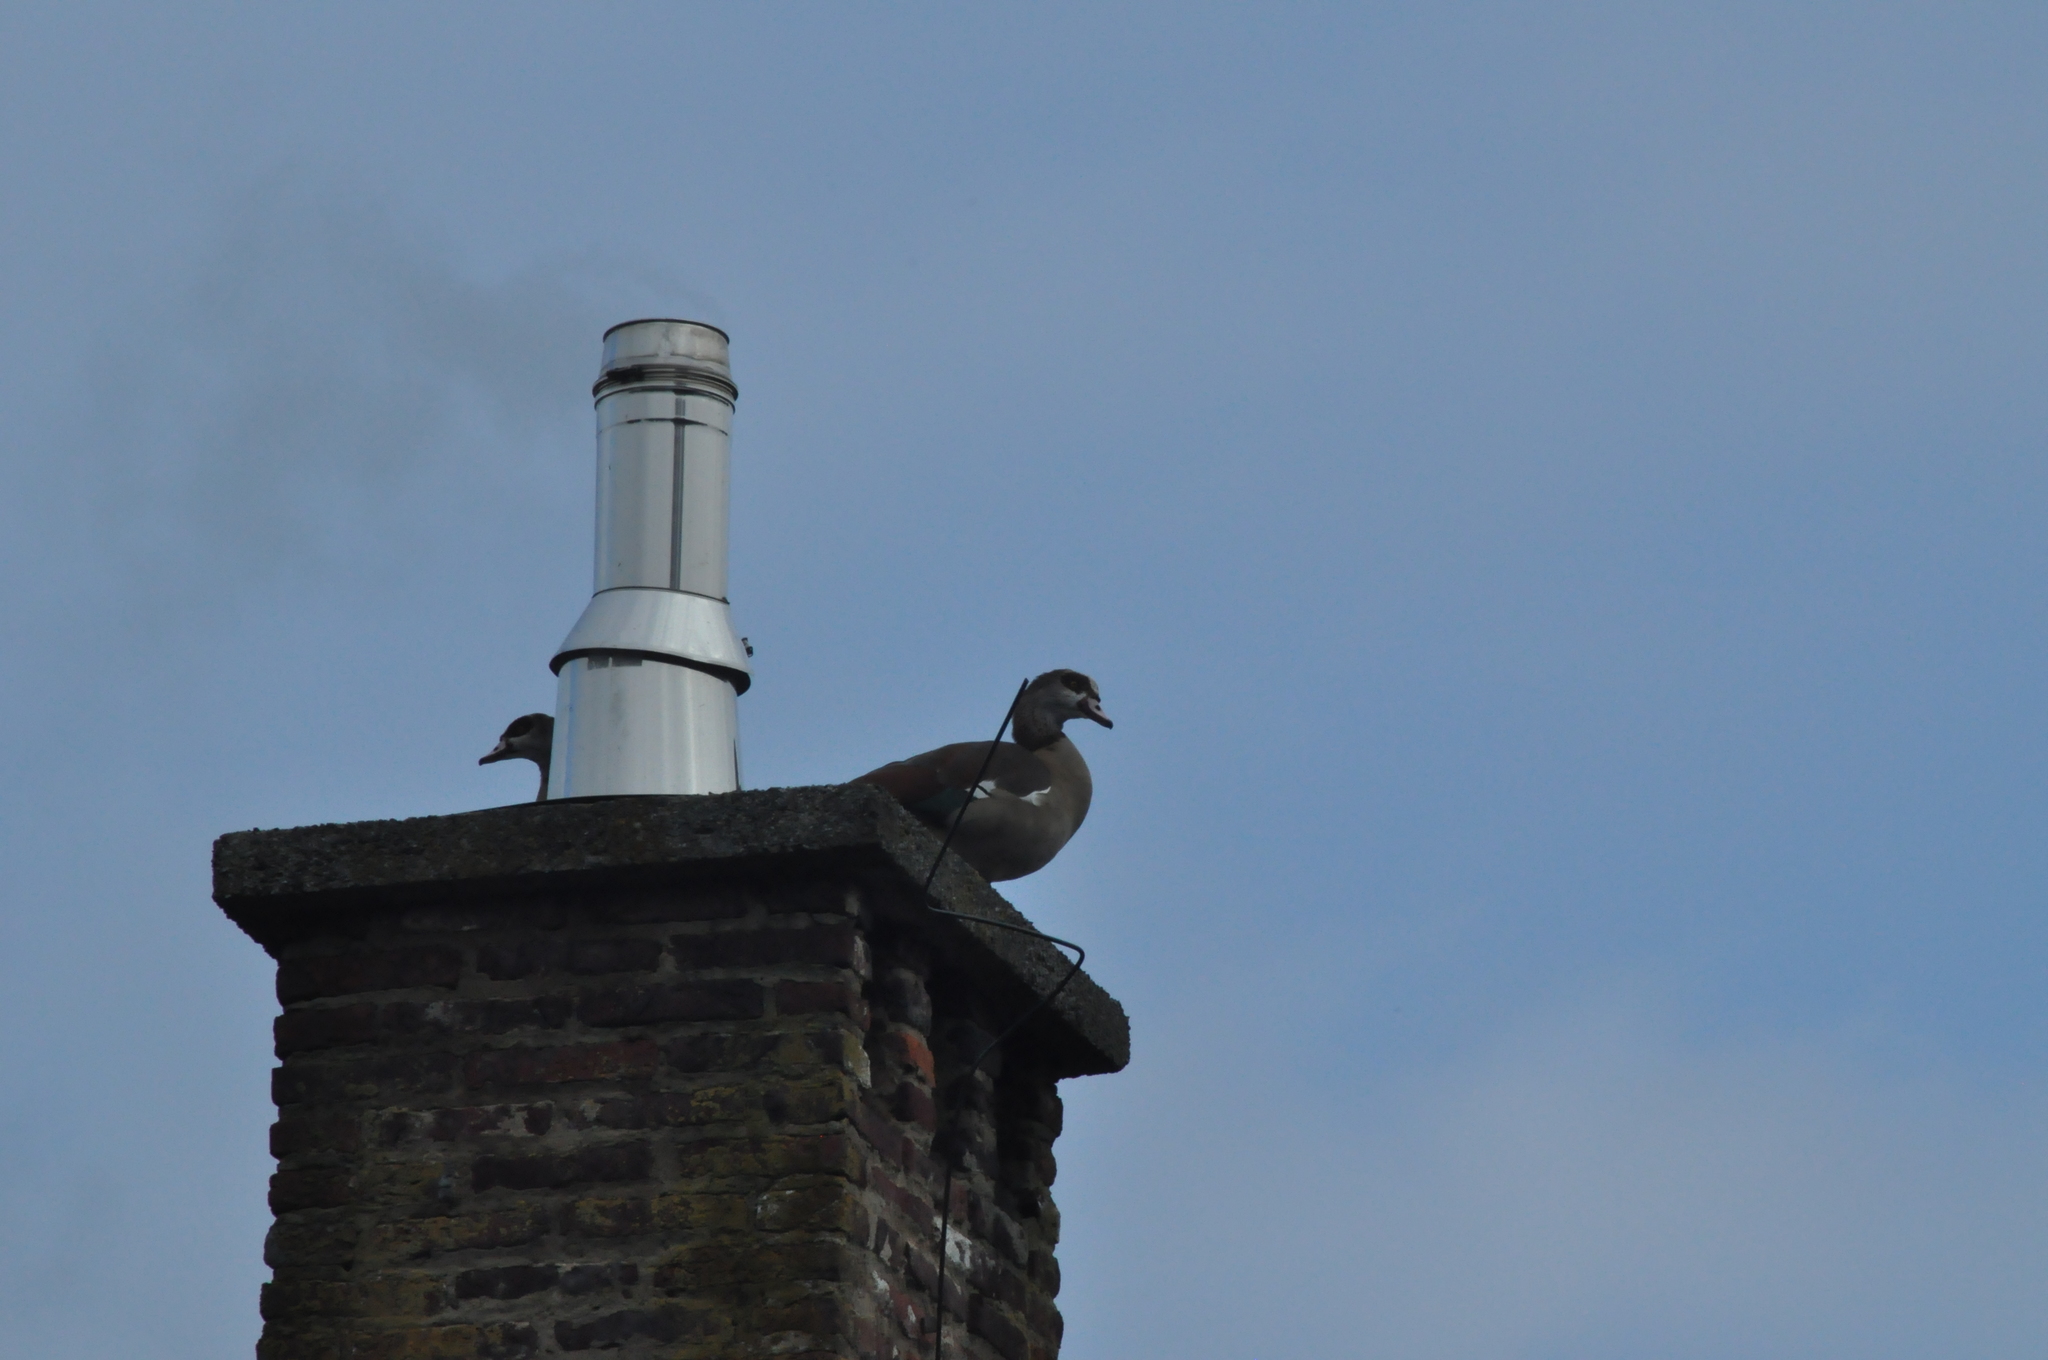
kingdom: Animalia
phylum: Chordata
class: Aves
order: Anseriformes
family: Anatidae
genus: Alopochen
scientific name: Alopochen aegyptiaca
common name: Egyptian goose
